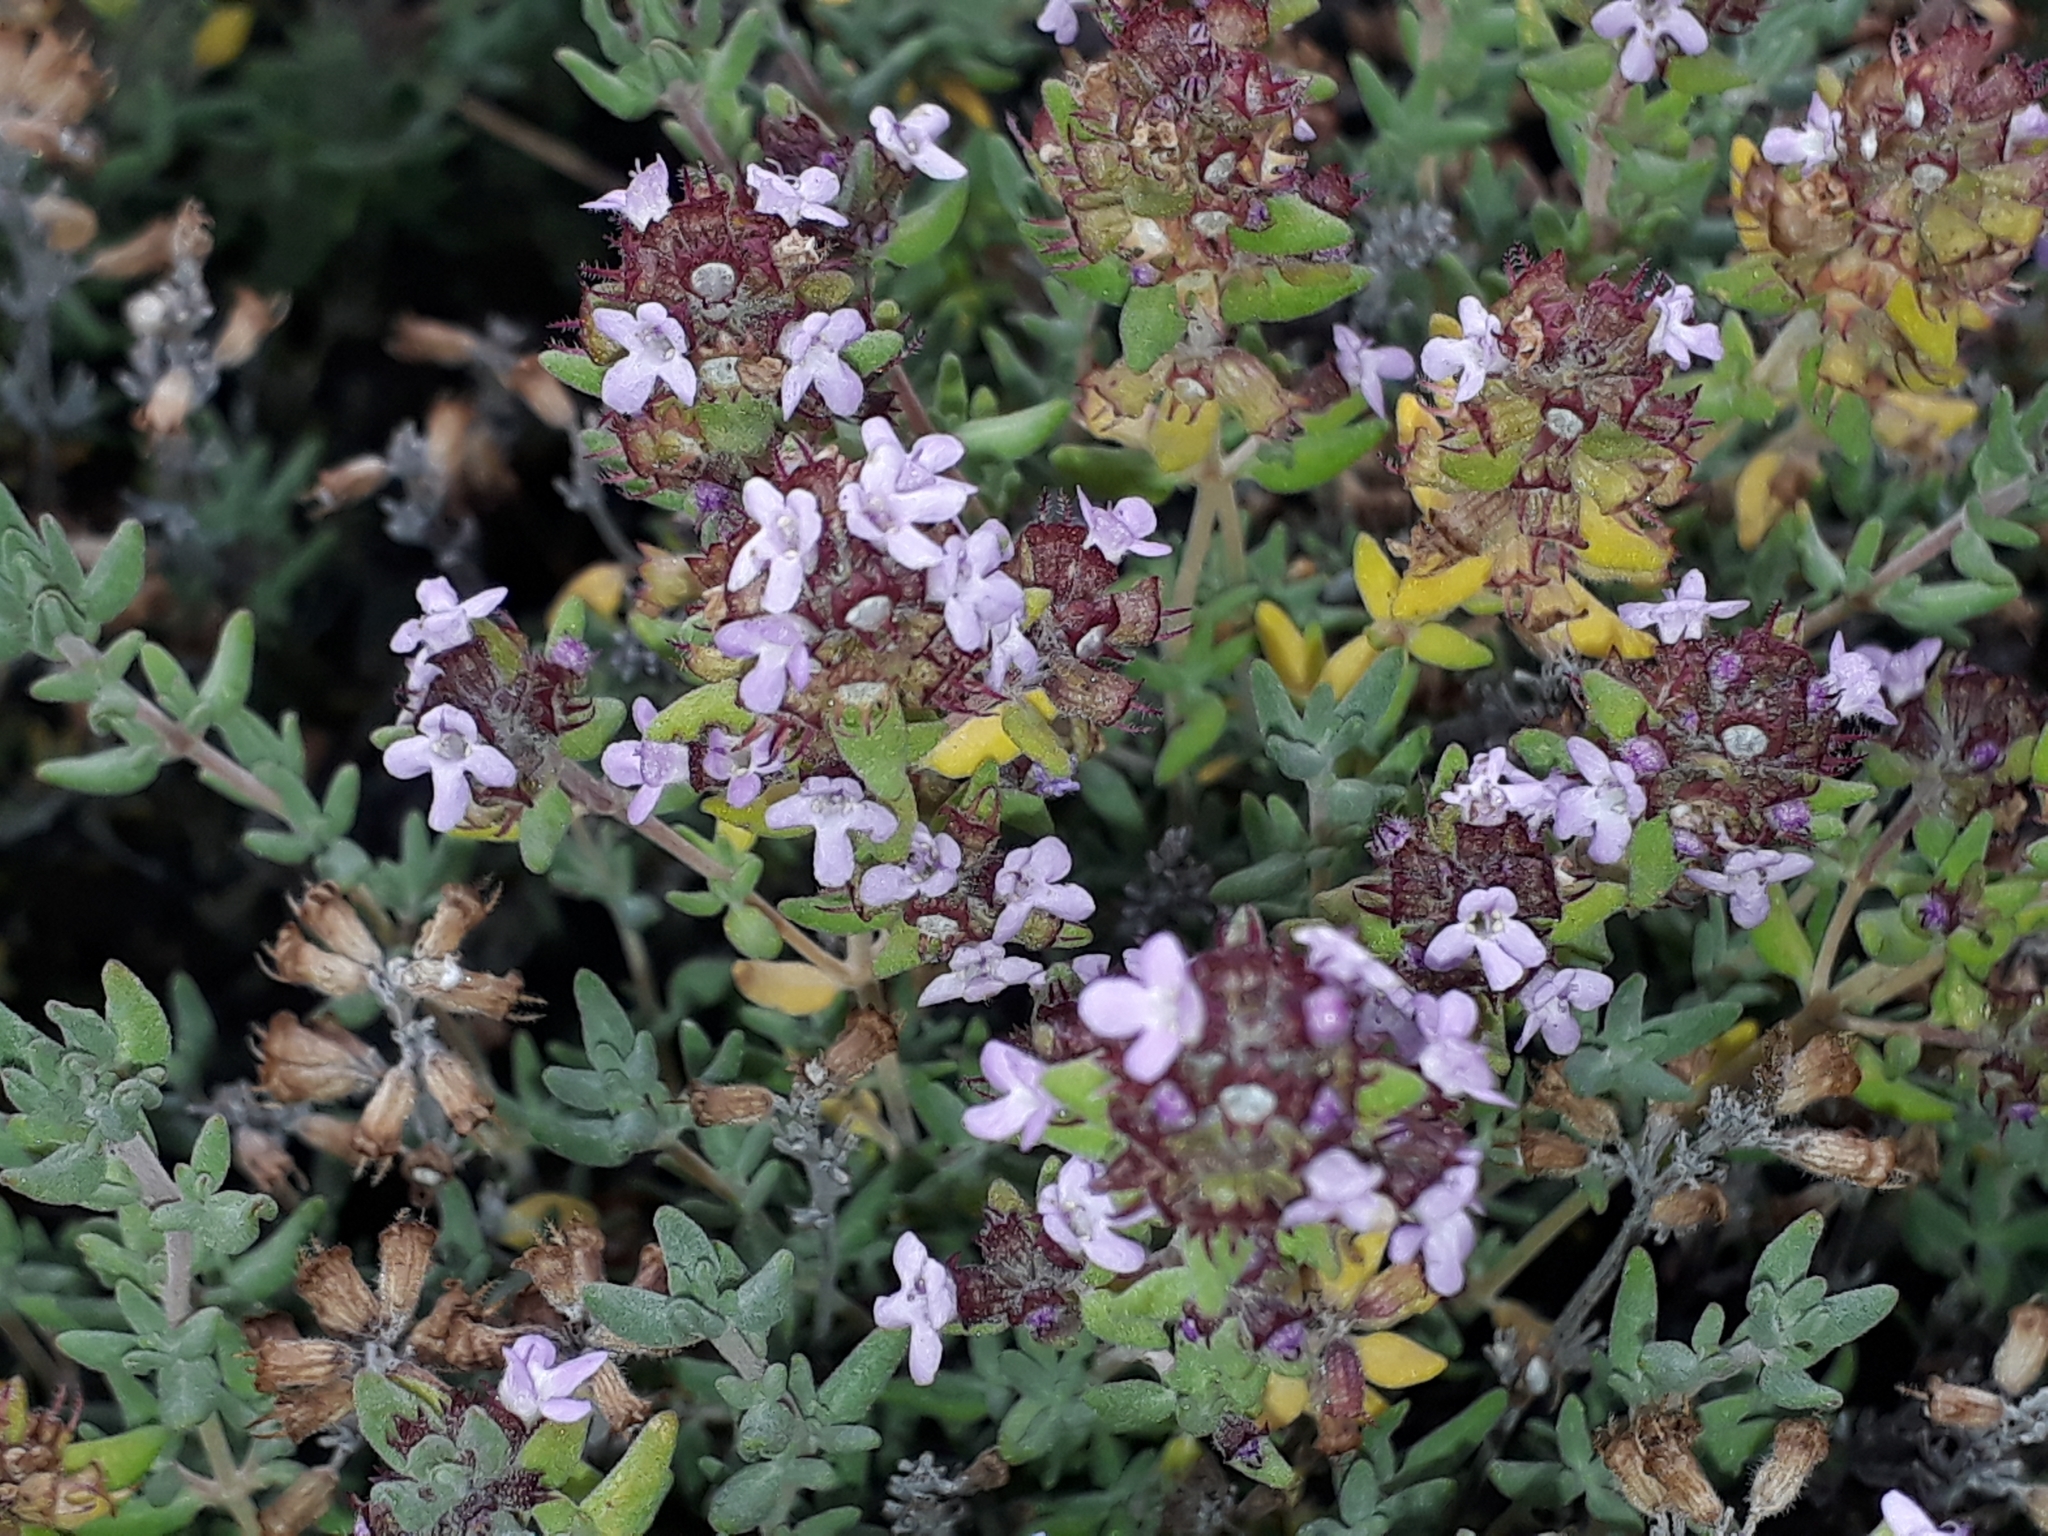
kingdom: Plantae
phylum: Tracheophyta
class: Magnoliopsida
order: Lamiales
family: Lamiaceae
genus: Thymus
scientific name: Thymus vulgaris
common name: Garden thyme
